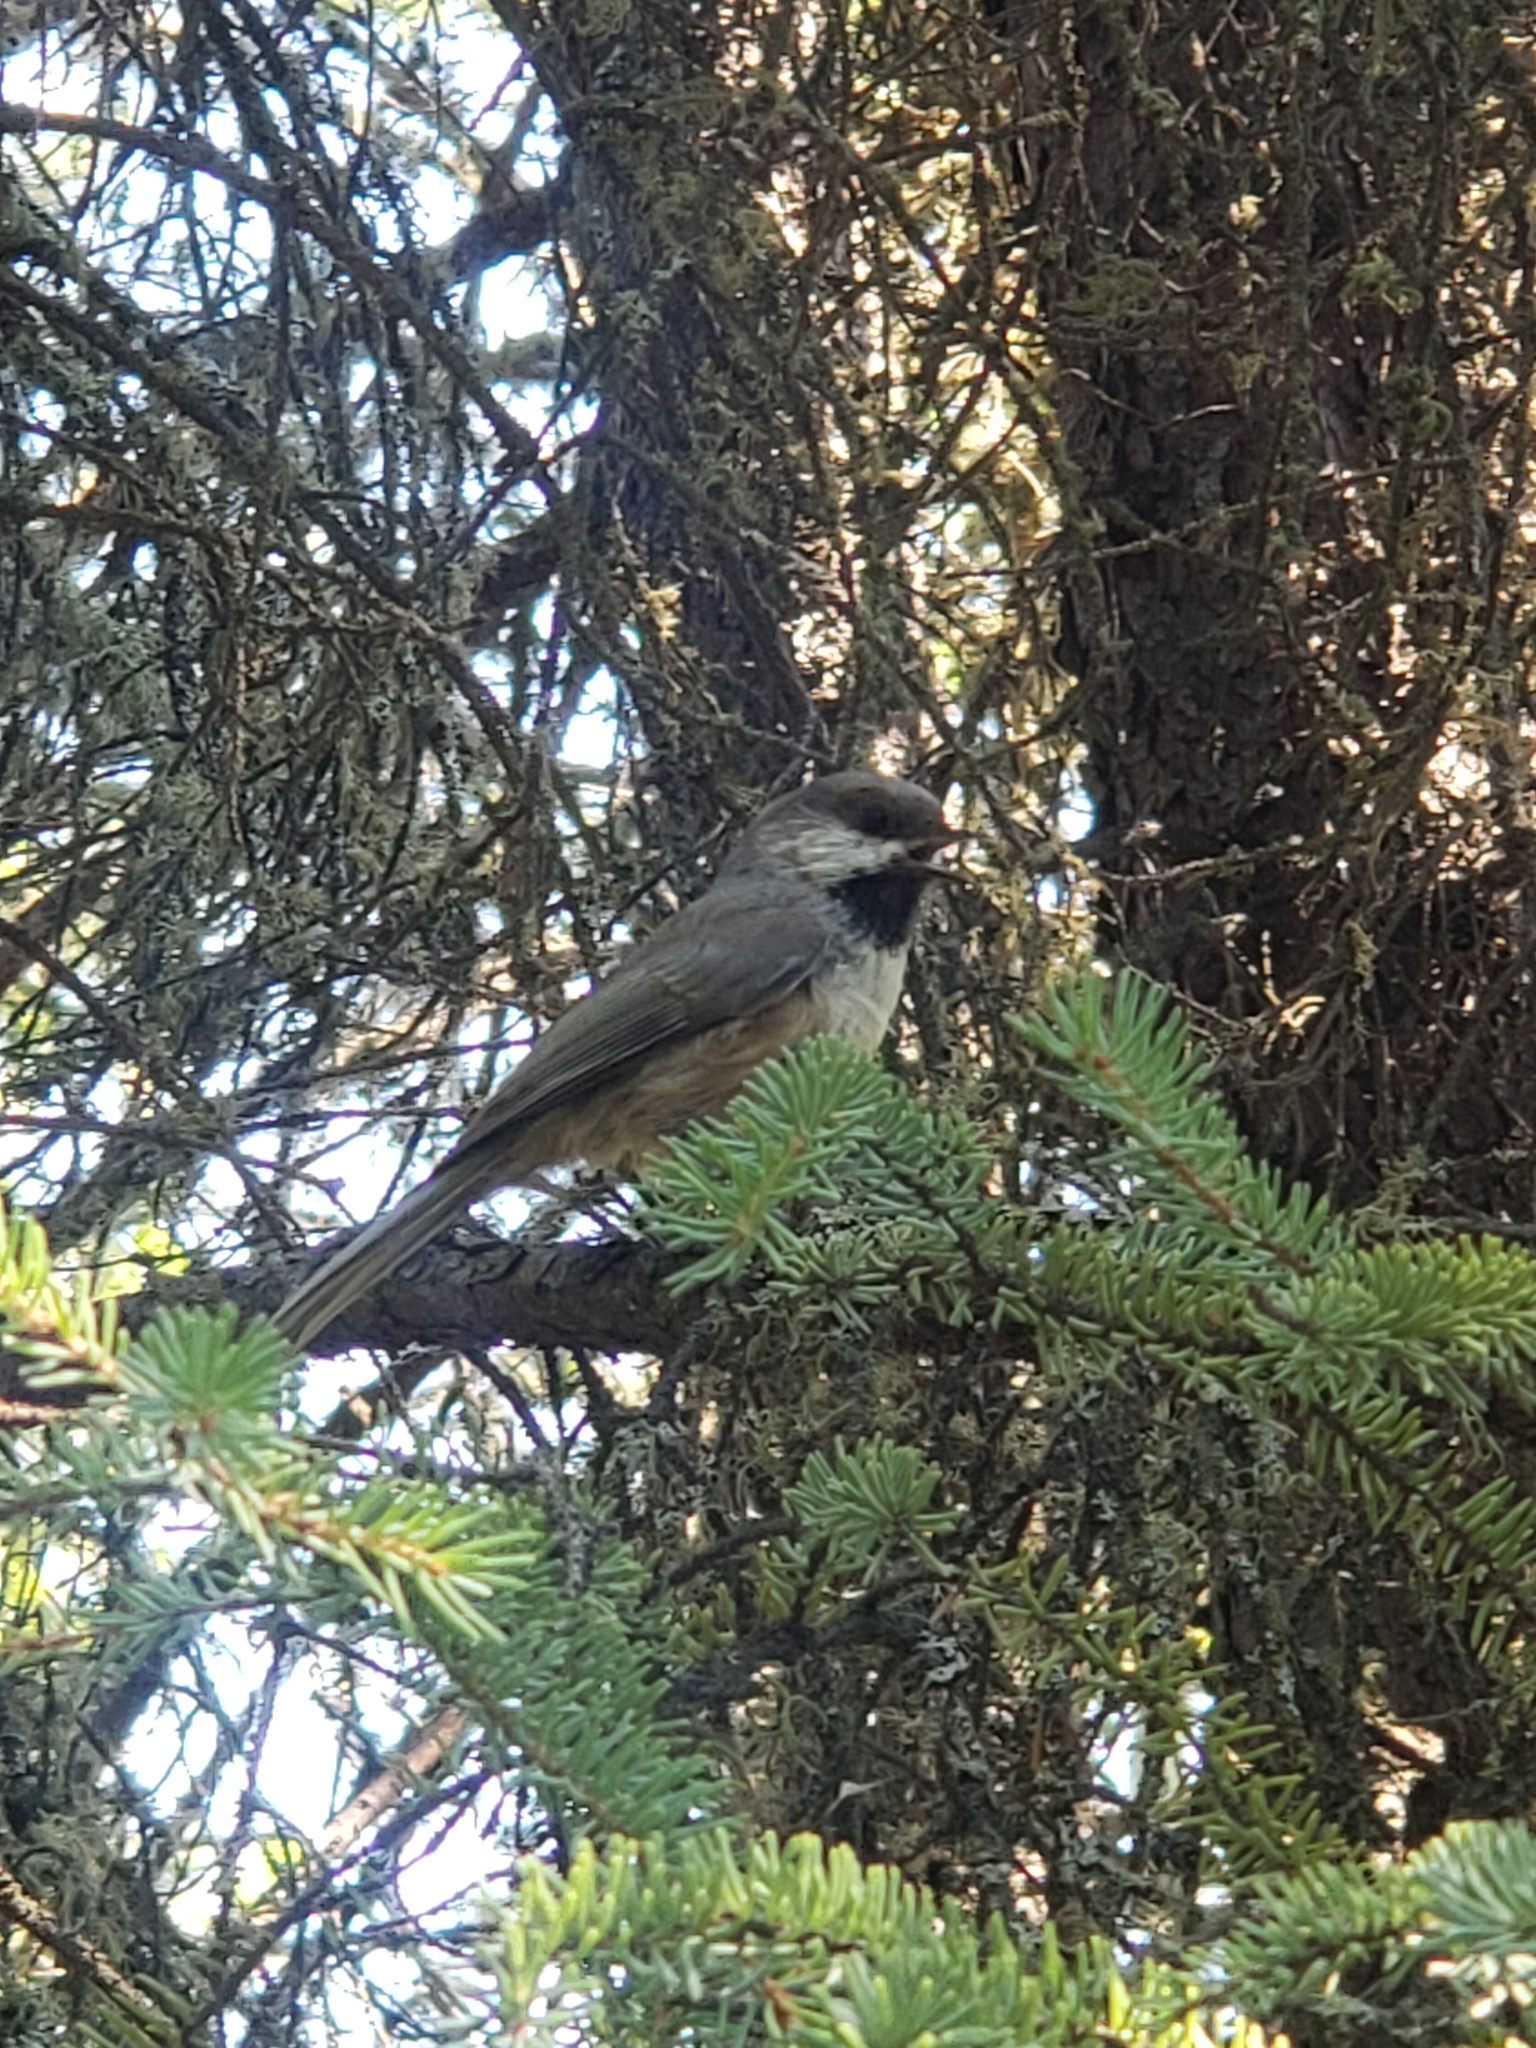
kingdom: Animalia
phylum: Chordata
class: Aves
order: Passeriformes
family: Paridae
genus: Poecile
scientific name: Poecile hudsonicus
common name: Boreal chickadee
